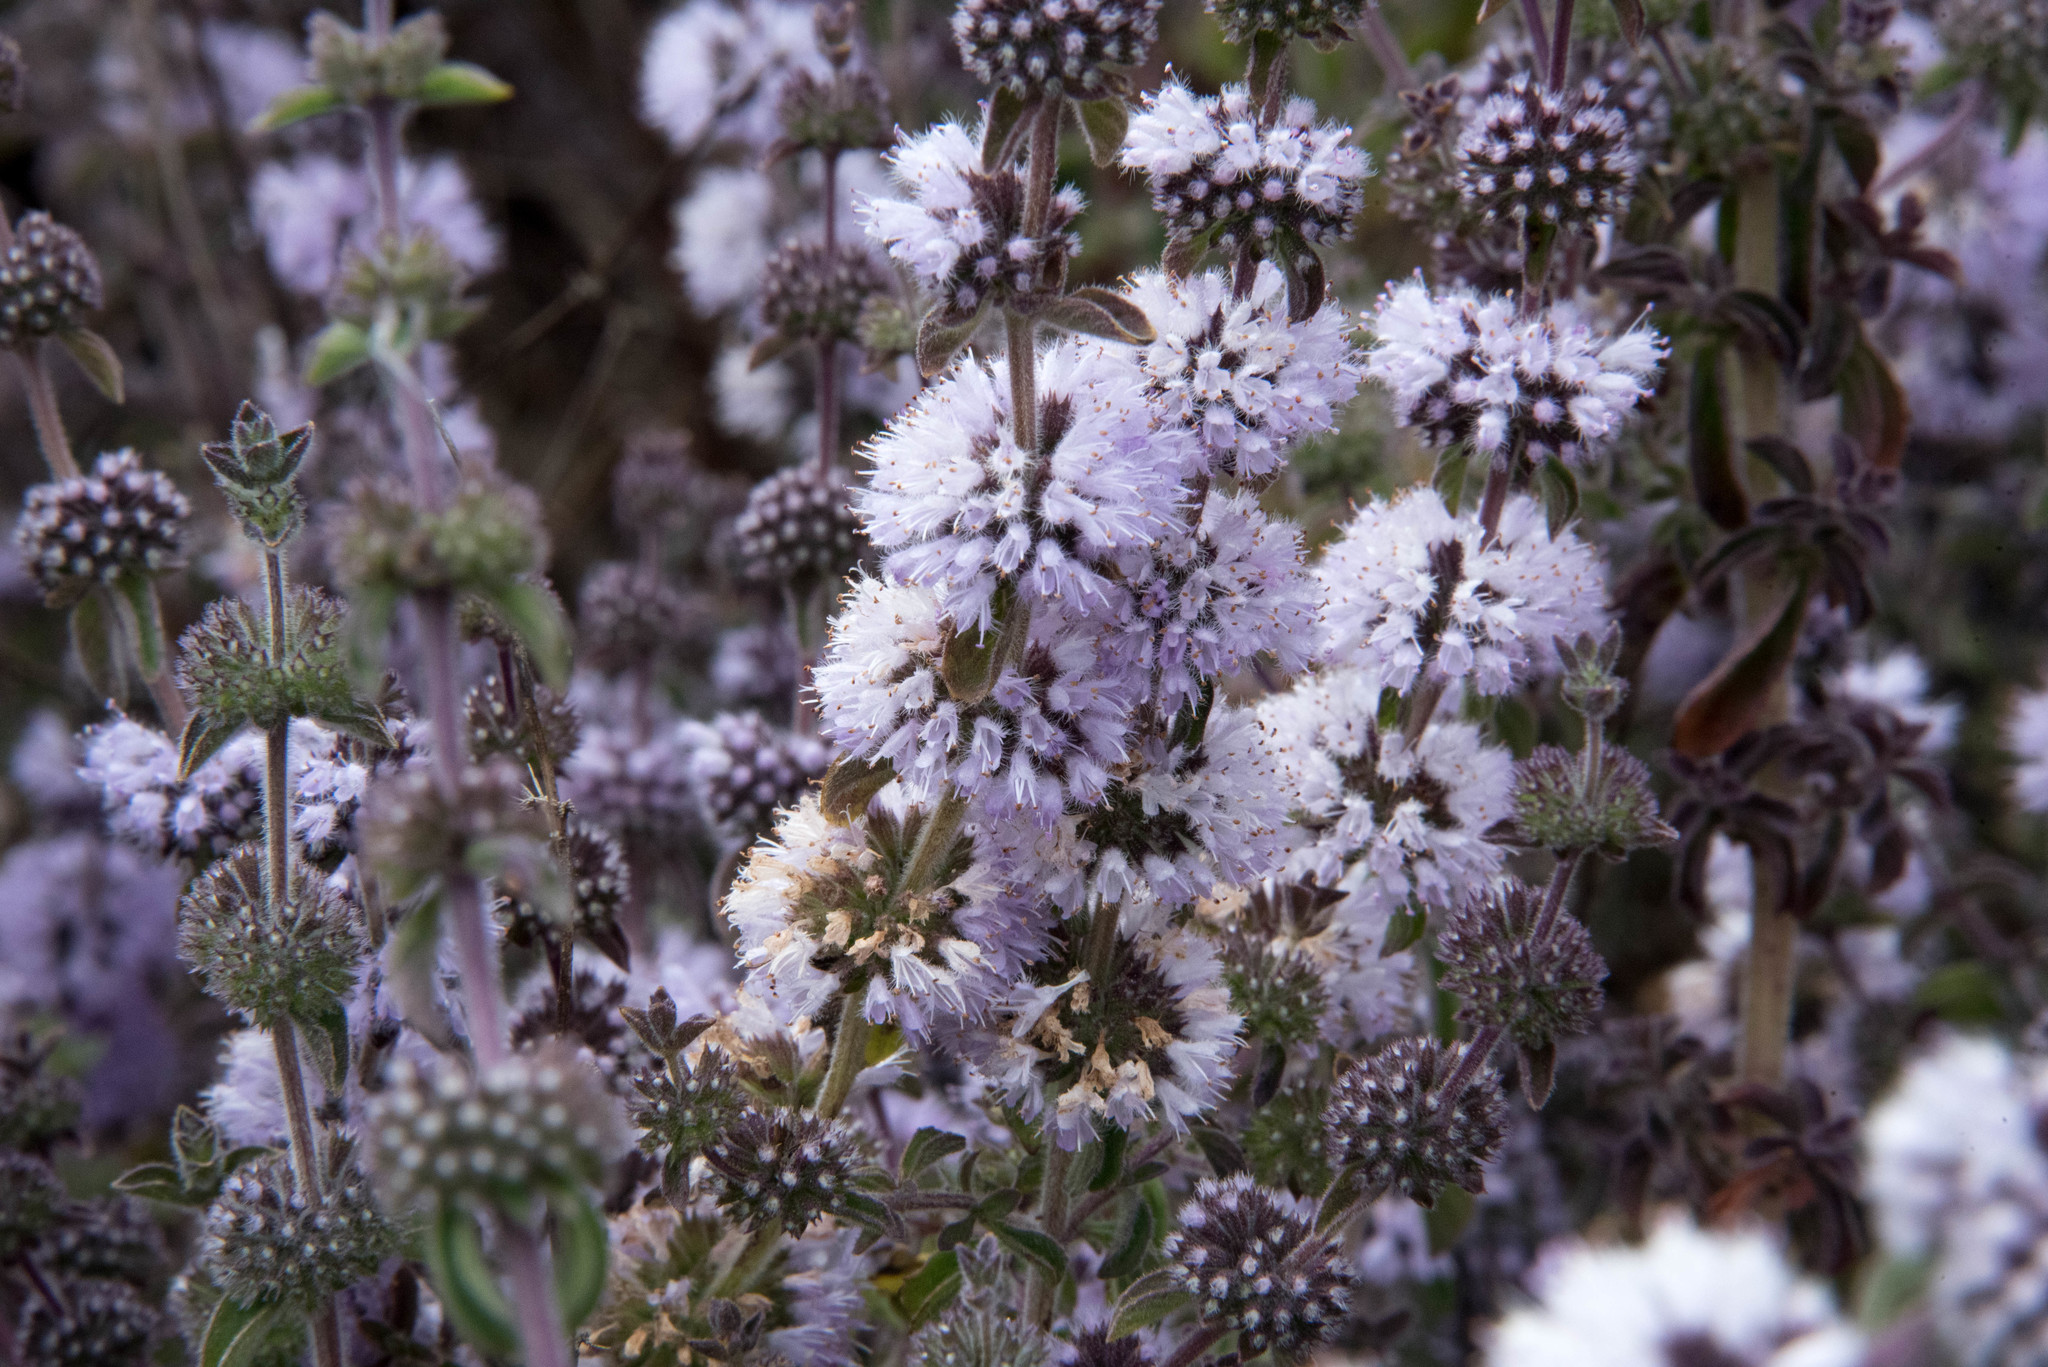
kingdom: Plantae
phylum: Tracheophyta
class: Magnoliopsida
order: Lamiales
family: Lamiaceae
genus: Mentha
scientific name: Mentha pulegium
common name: Pennyroyal
